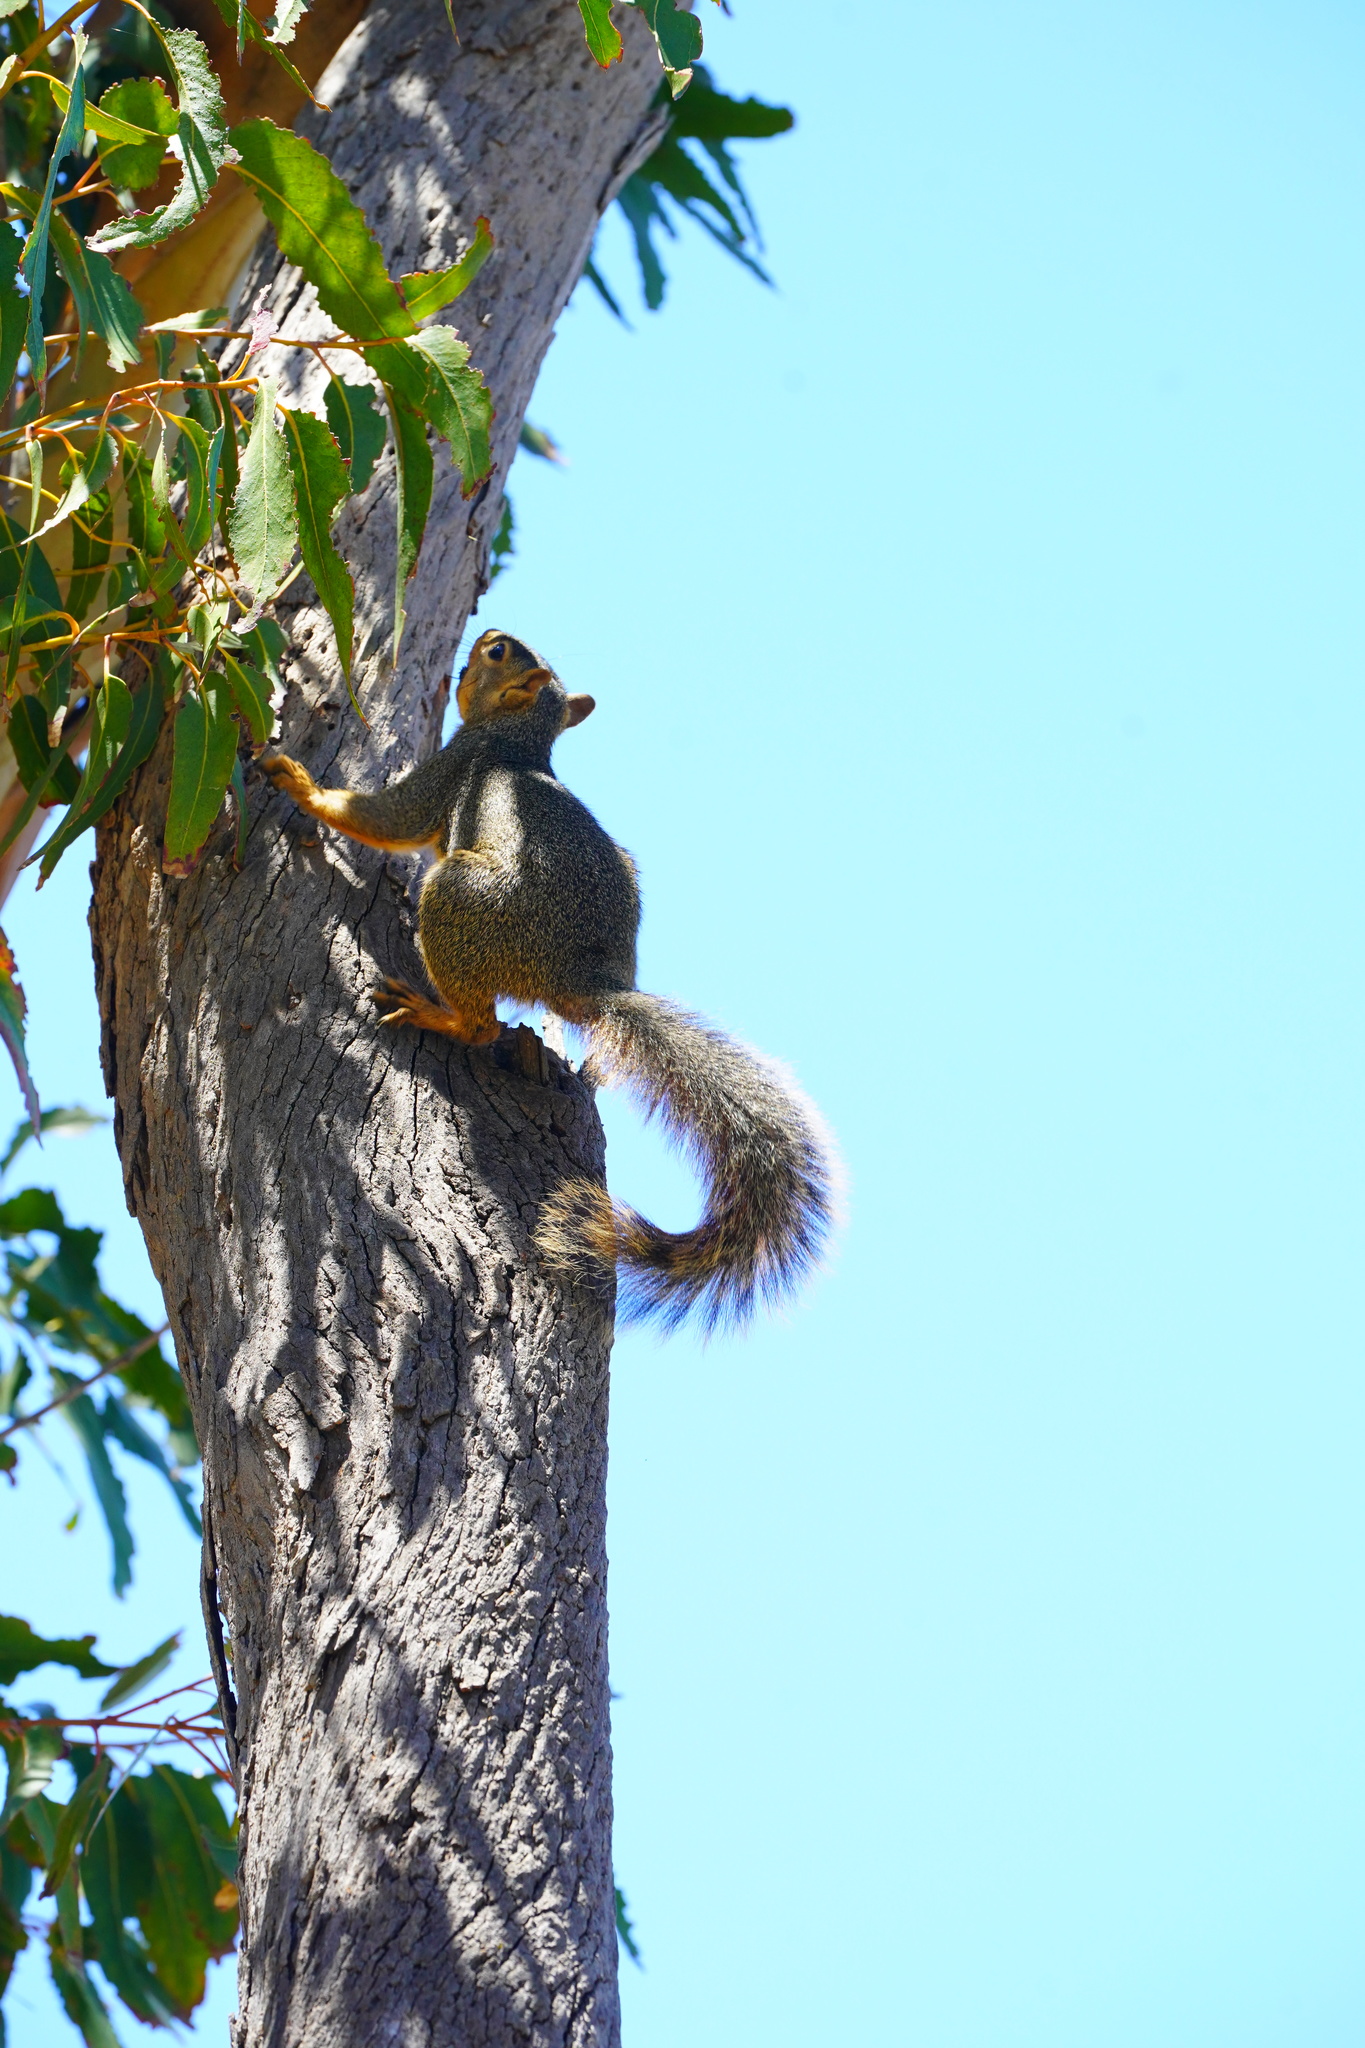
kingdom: Animalia
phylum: Chordata
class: Mammalia
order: Rodentia
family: Sciuridae
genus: Sciurus
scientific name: Sciurus niger
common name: Fox squirrel
